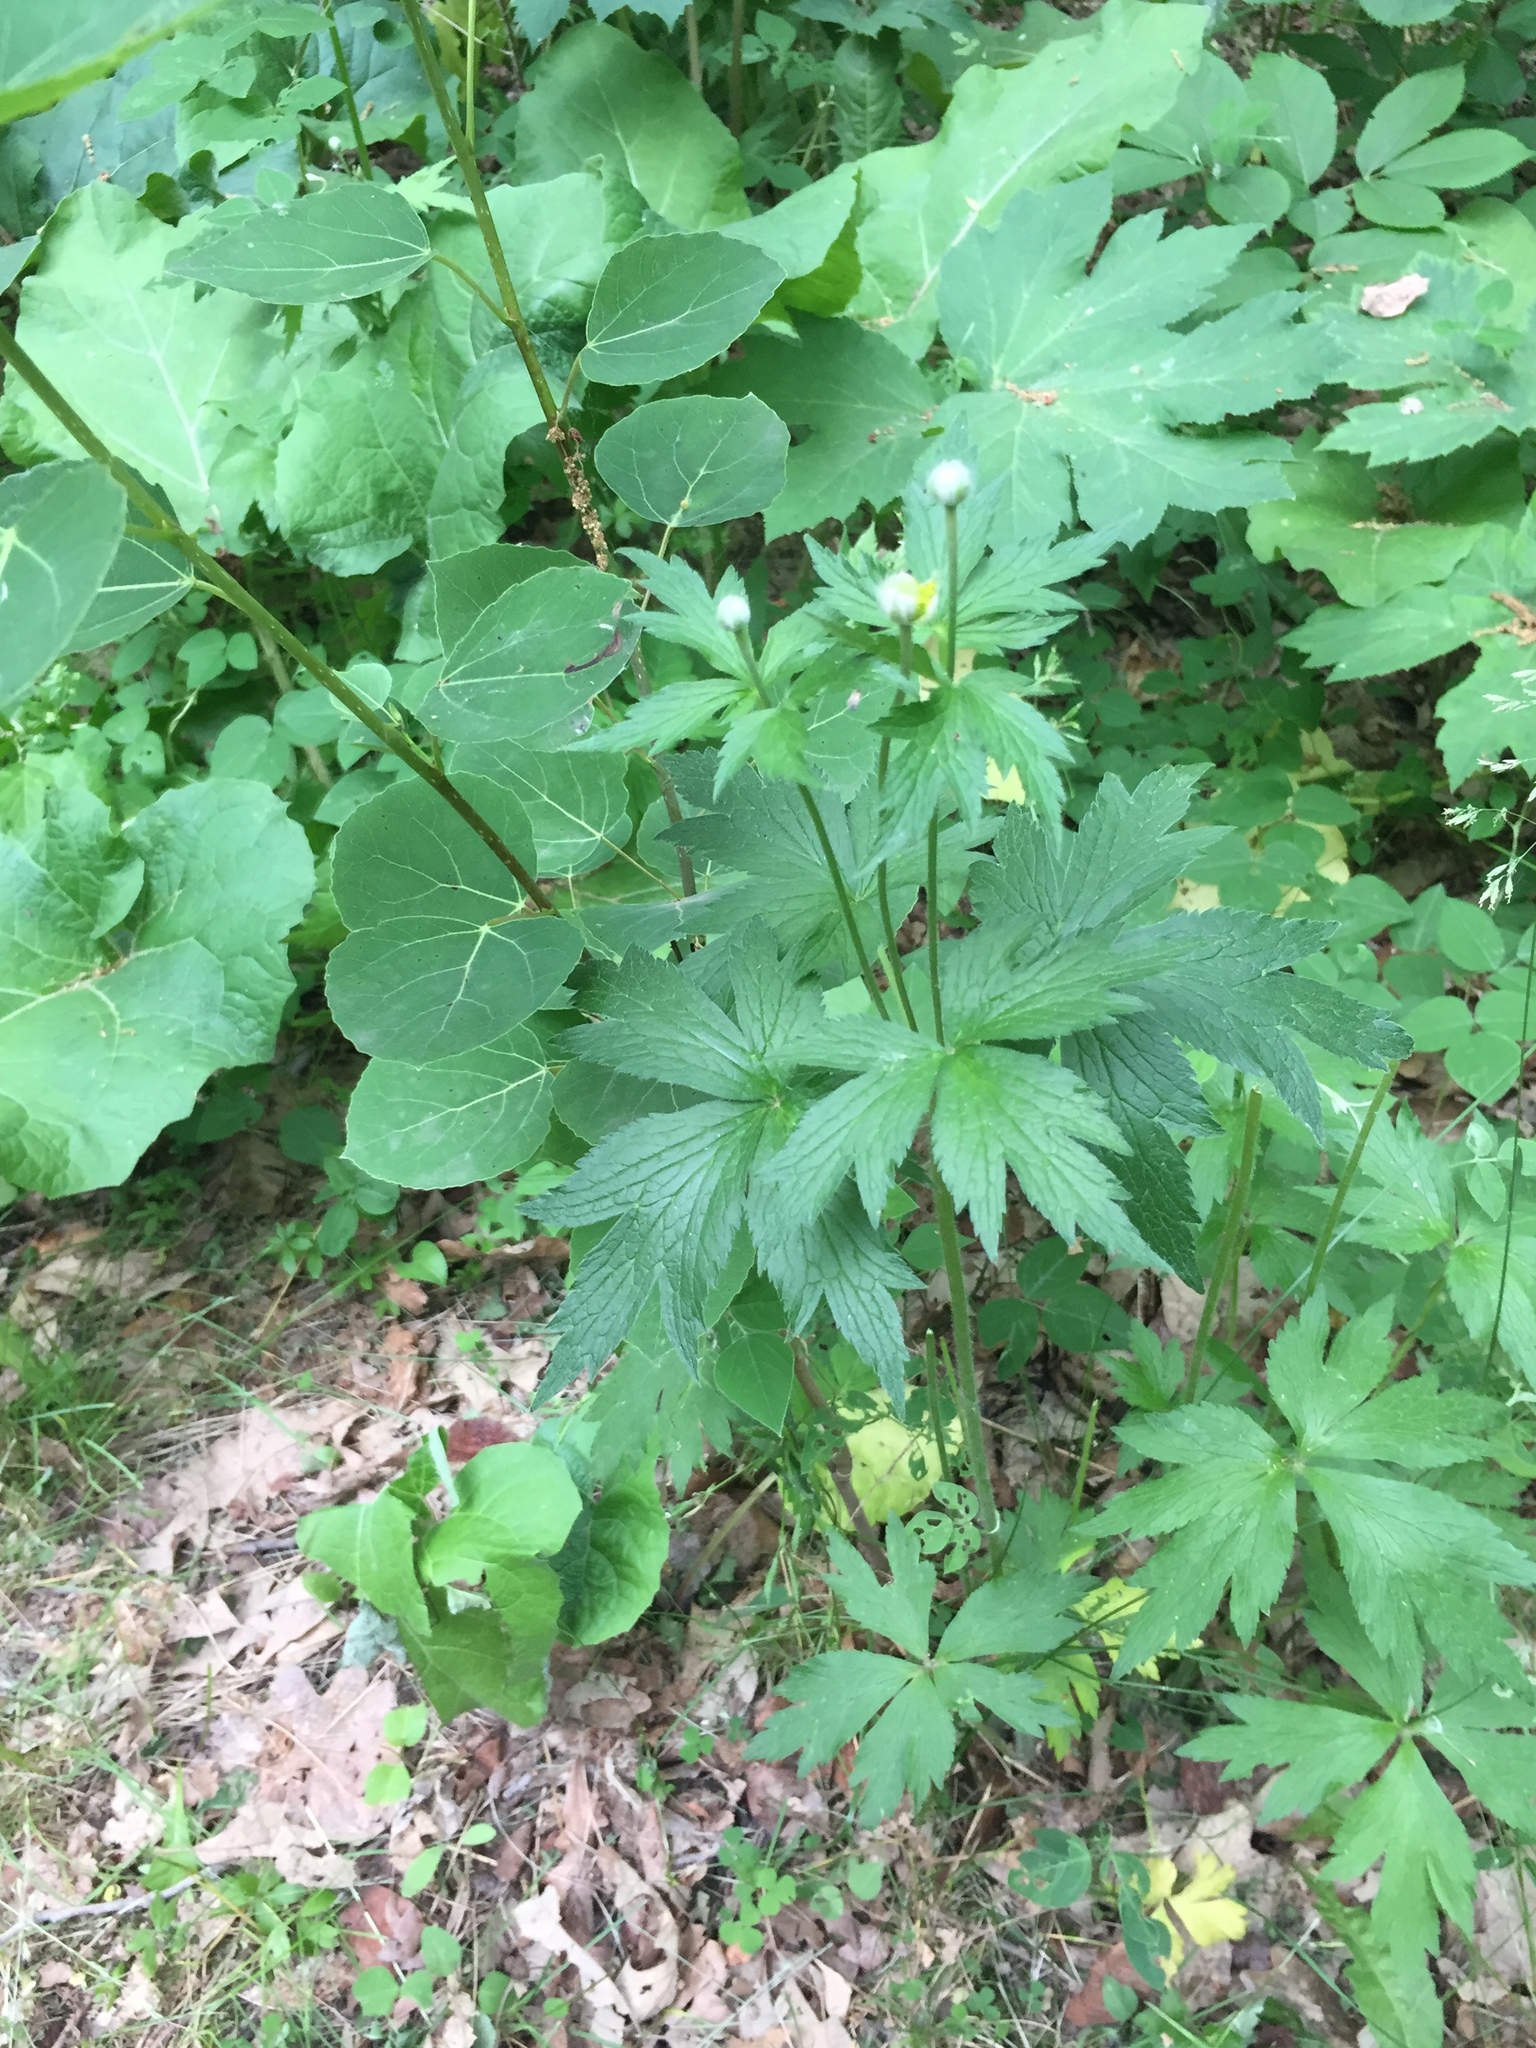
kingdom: Plantae
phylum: Tracheophyta
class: Magnoliopsida
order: Ranunculales
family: Ranunculaceae
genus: Anemone
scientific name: Anemone virginiana
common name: Tall anemone
